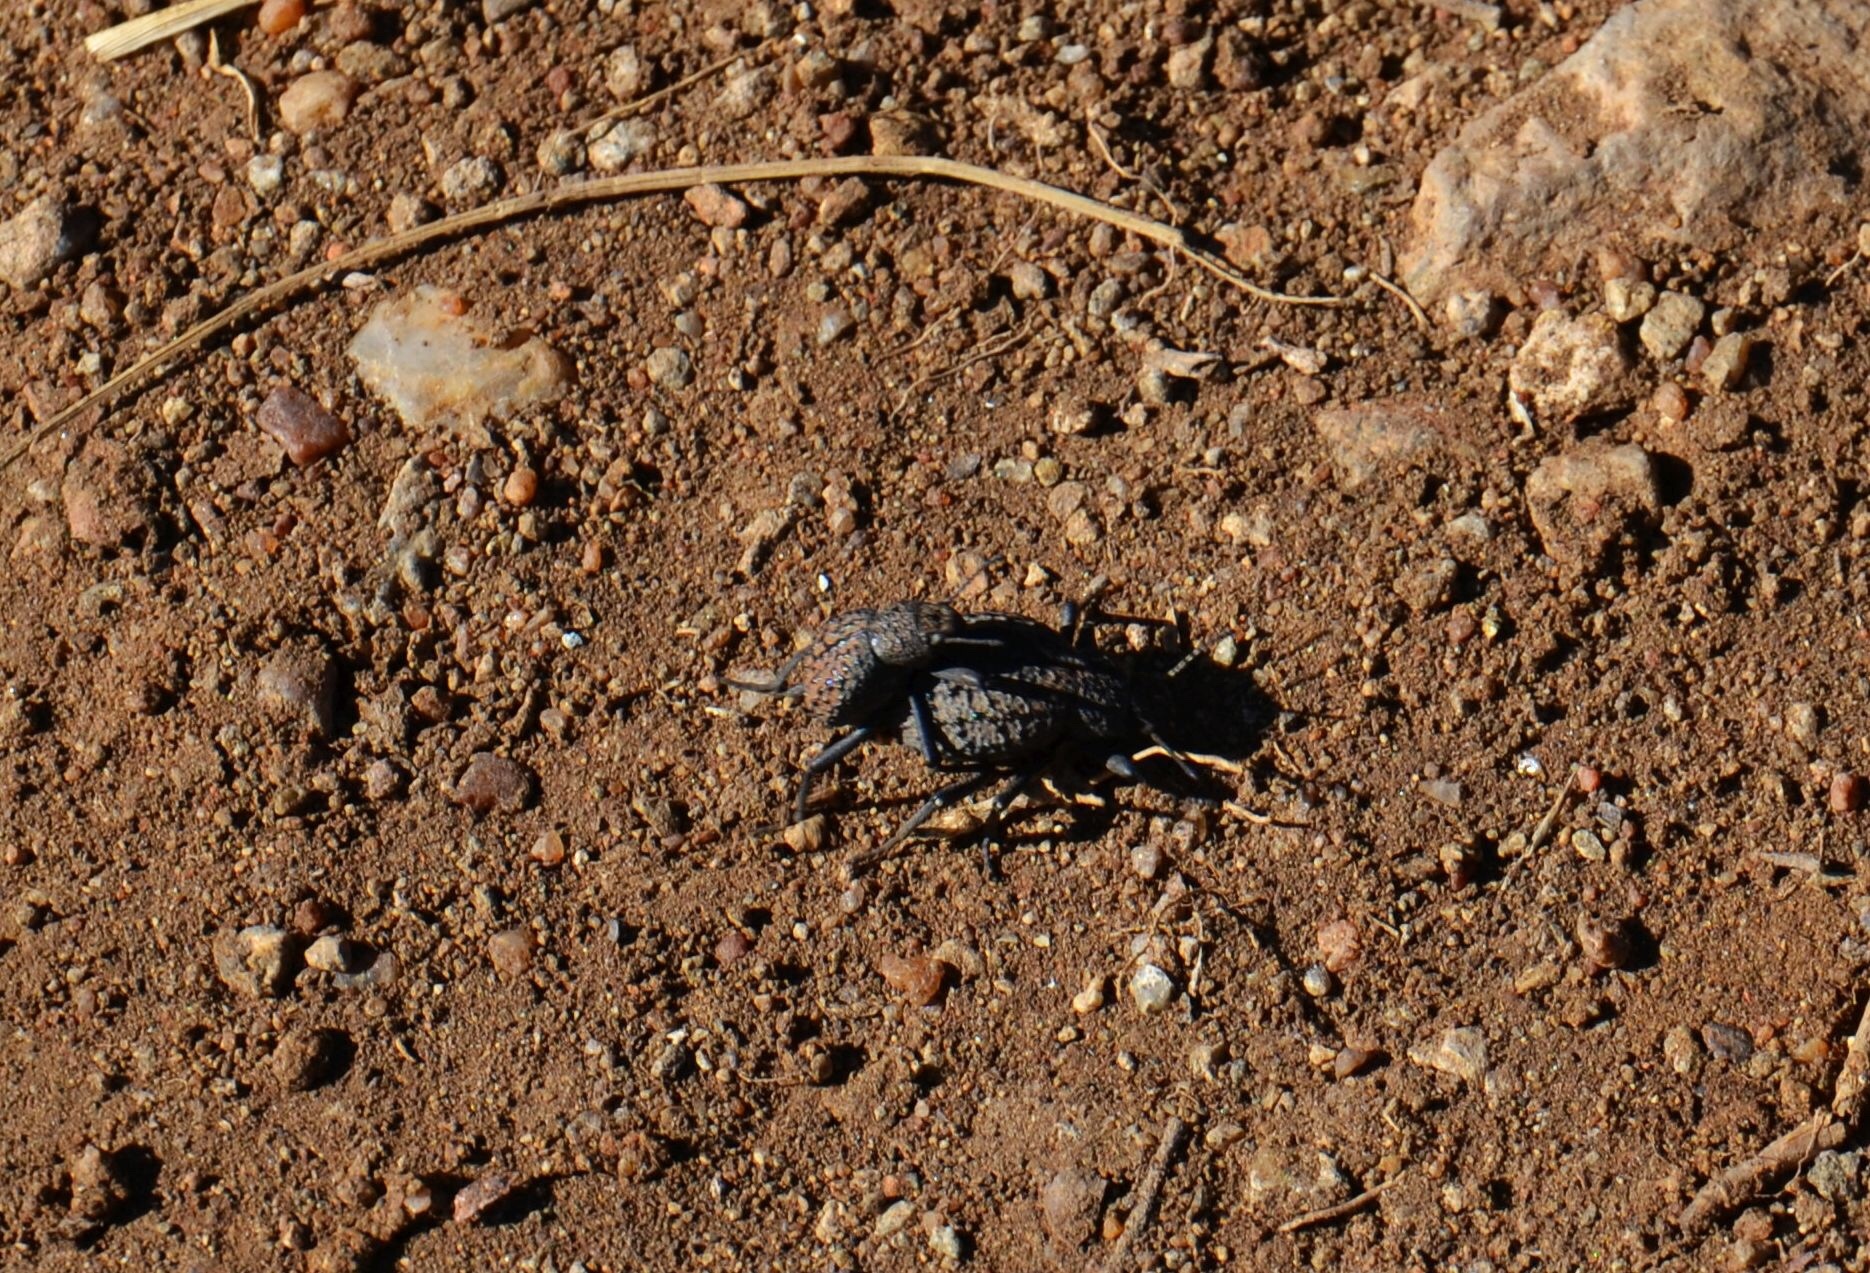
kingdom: Animalia
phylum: Arthropoda
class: Insecta
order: Coleoptera
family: Tenebrionidae
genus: Renatiella
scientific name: Renatiella
